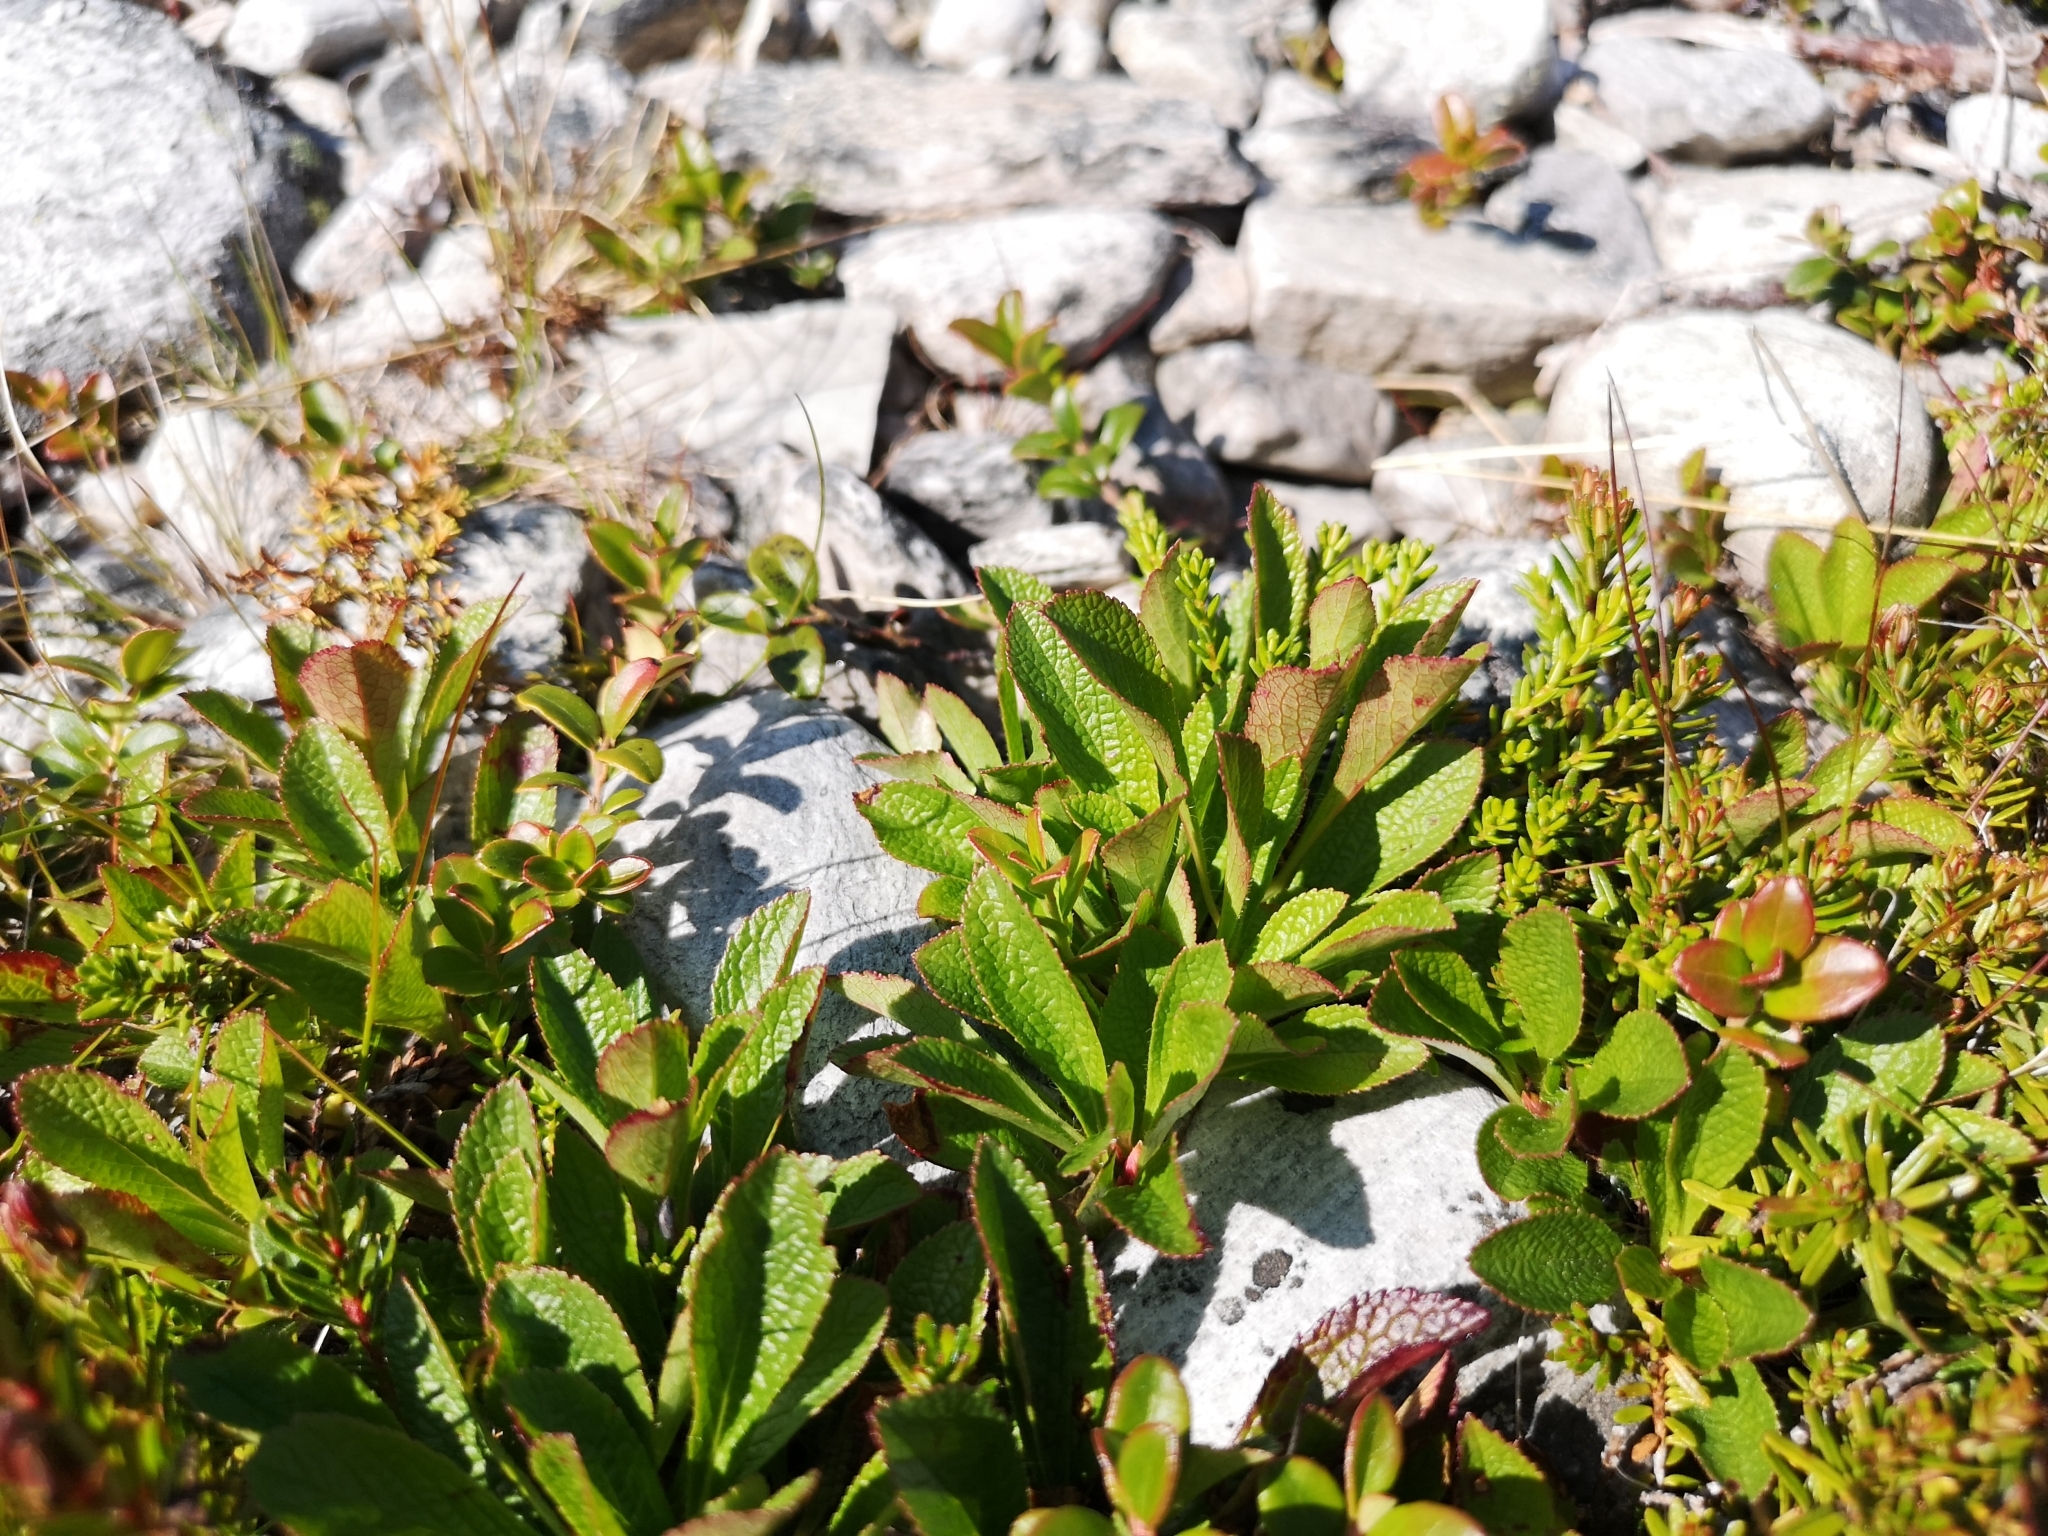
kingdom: Plantae
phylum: Tracheophyta
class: Magnoliopsida
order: Ericales
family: Ericaceae
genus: Arctostaphylos
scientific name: Arctostaphylos alpinus
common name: Alpine bearberry
